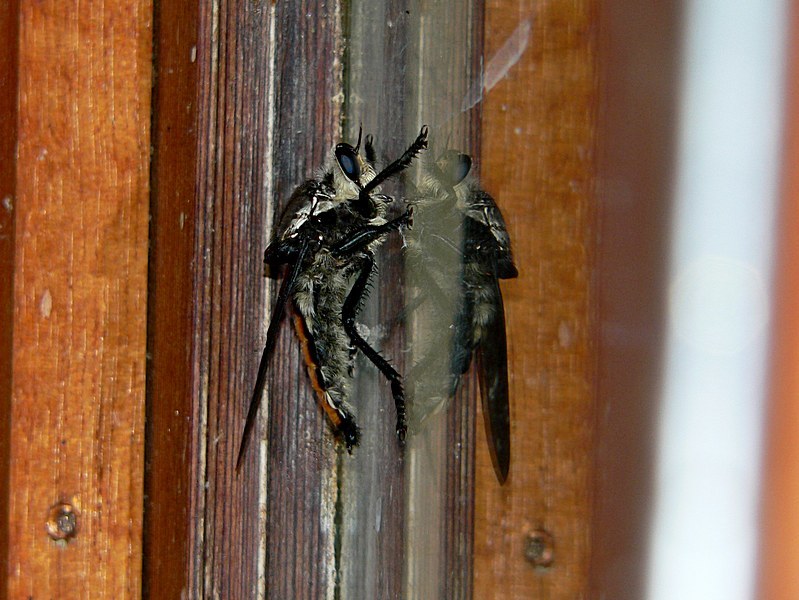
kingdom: Animalia
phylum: Arthropoda
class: Insecta
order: Diptera
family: Asilidae
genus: Blepharotes
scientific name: Blepharotes coriarius
